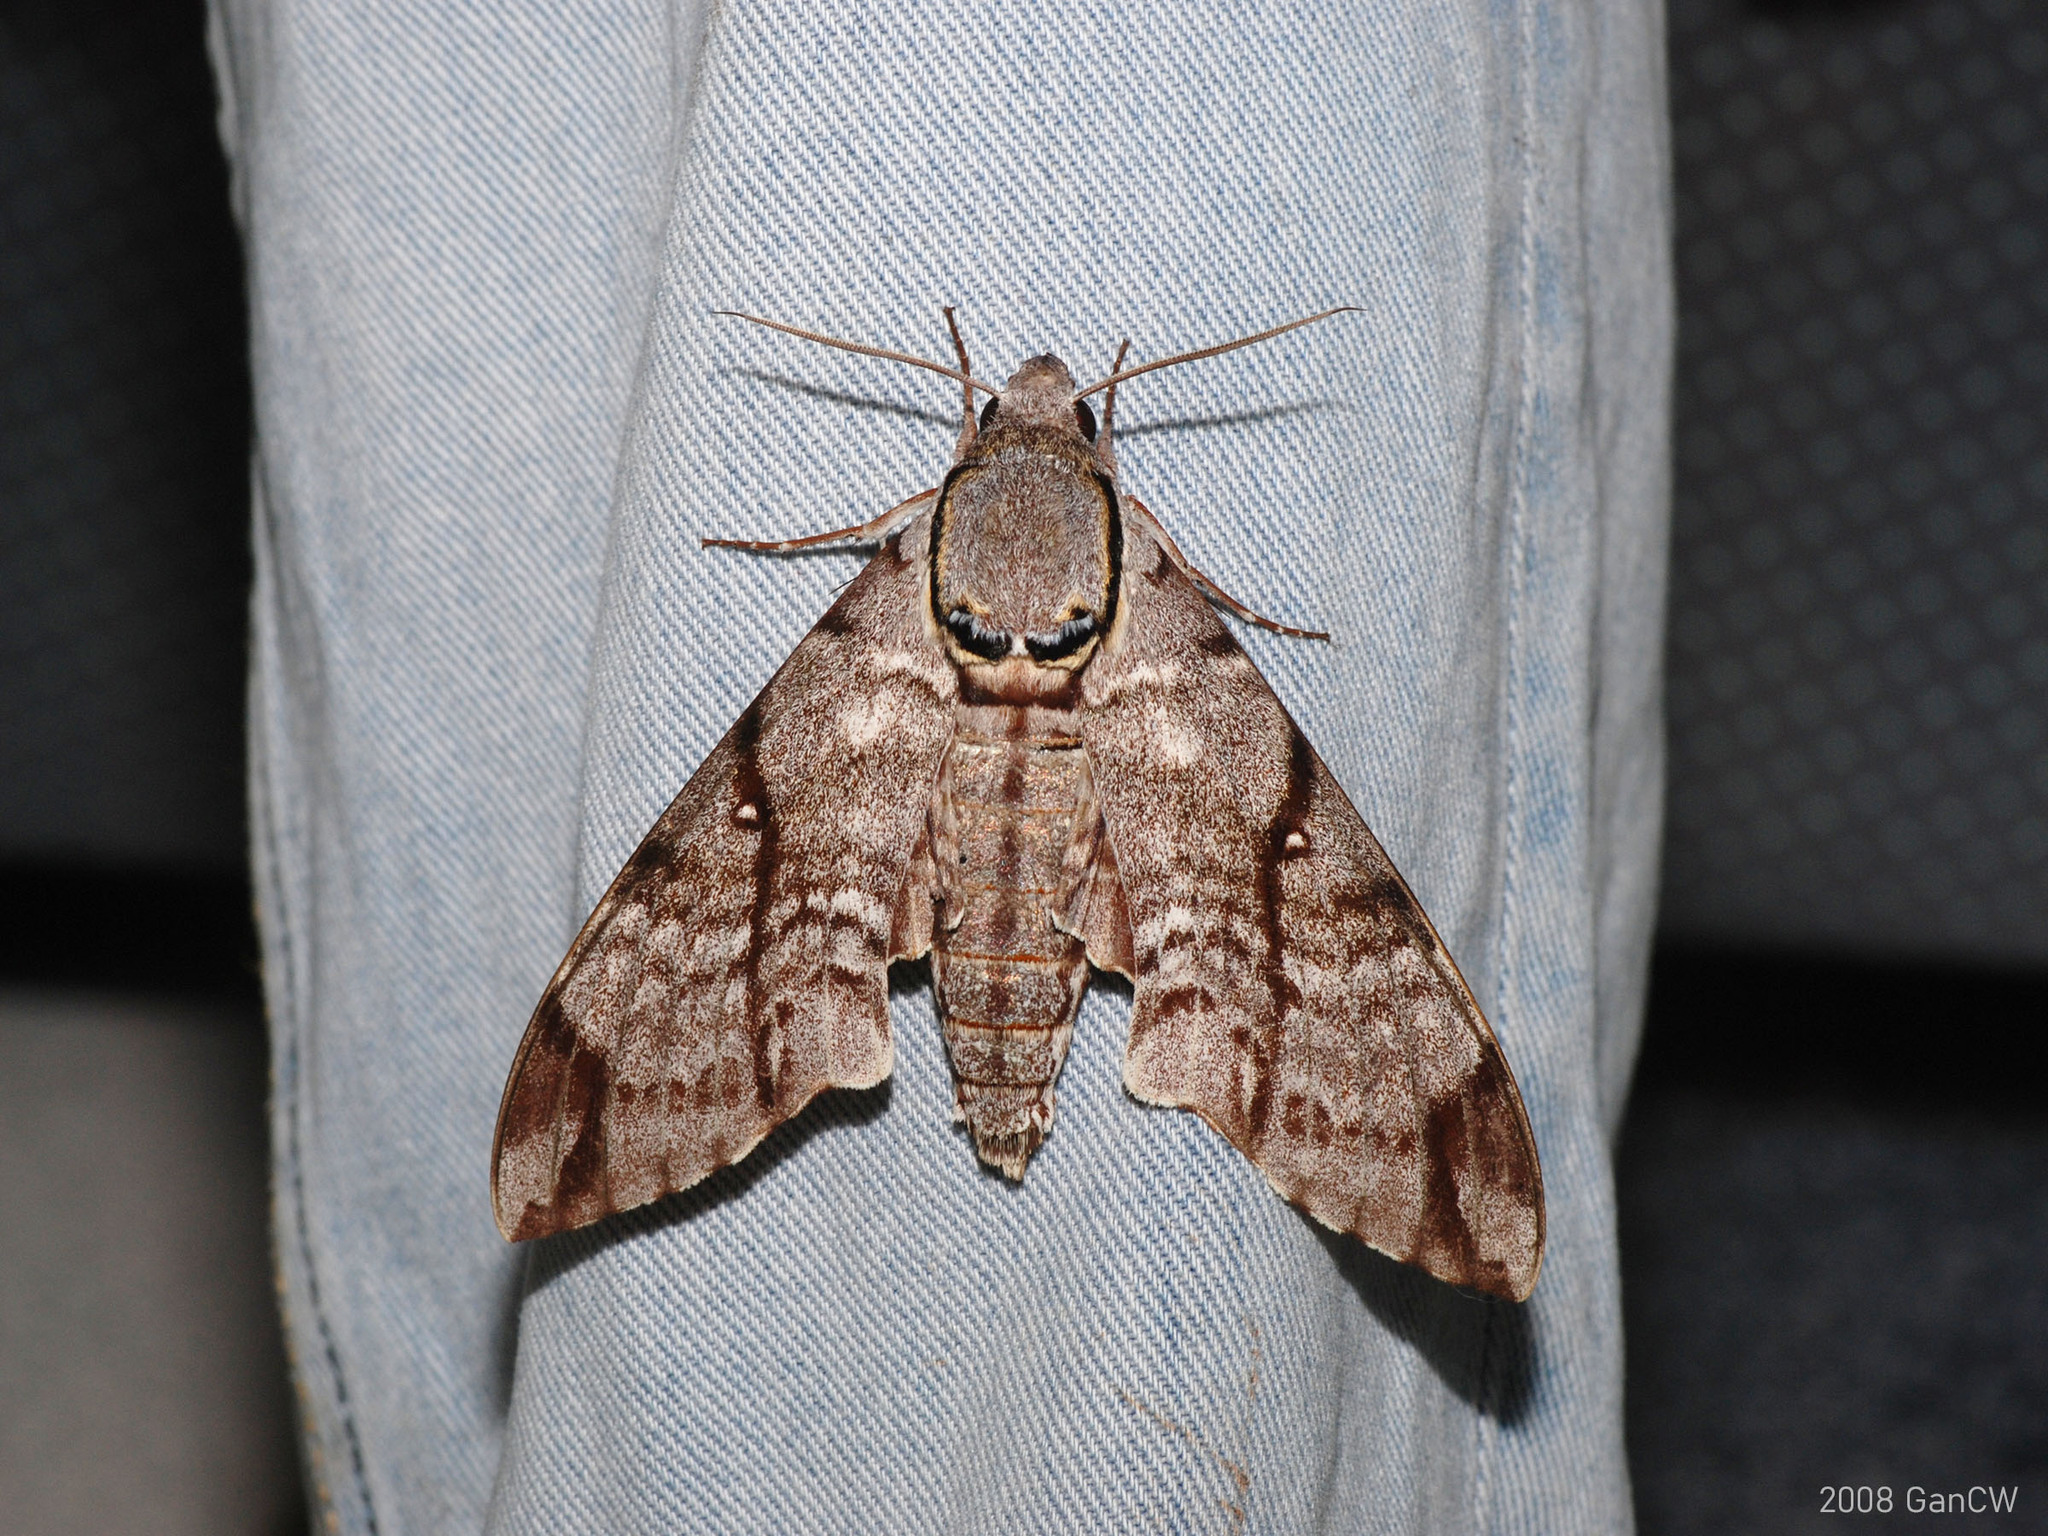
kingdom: Animalia
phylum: Arthropoda
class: Insecta
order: Lepidoptera
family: Sphingidae
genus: Notonagemia
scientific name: Notonagemia analis
